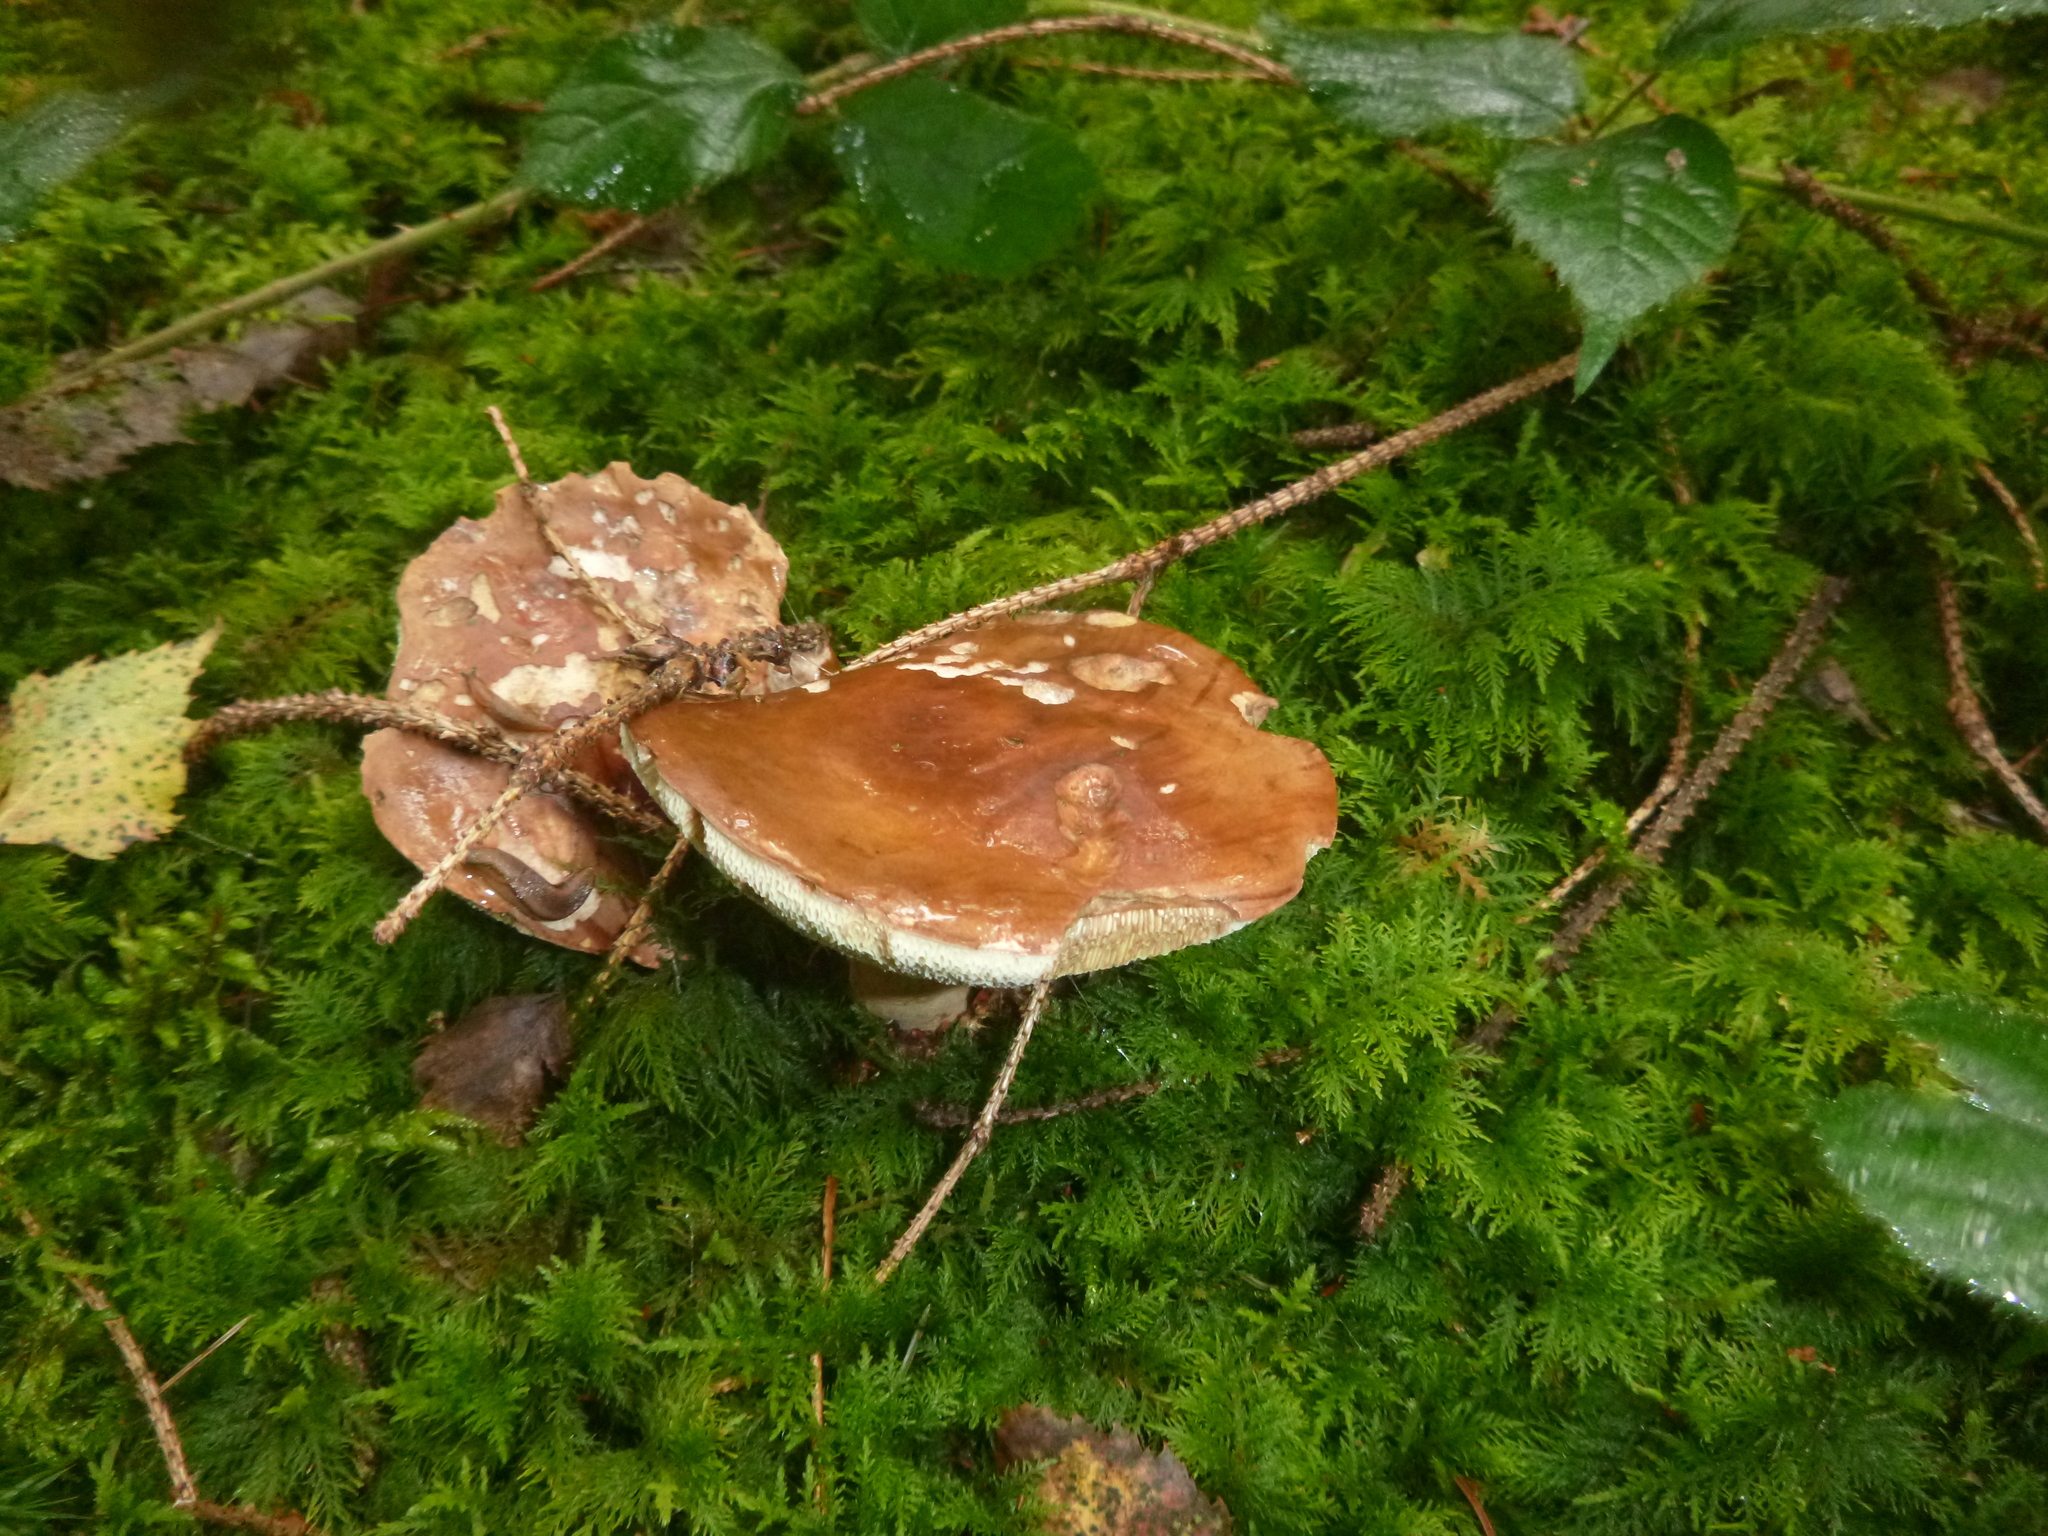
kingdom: Fungi
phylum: Basidiomycota
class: Agaricomycetes
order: Boletales
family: Boletaceae
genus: Imleria
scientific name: Imleria badia
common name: Bay bolete
